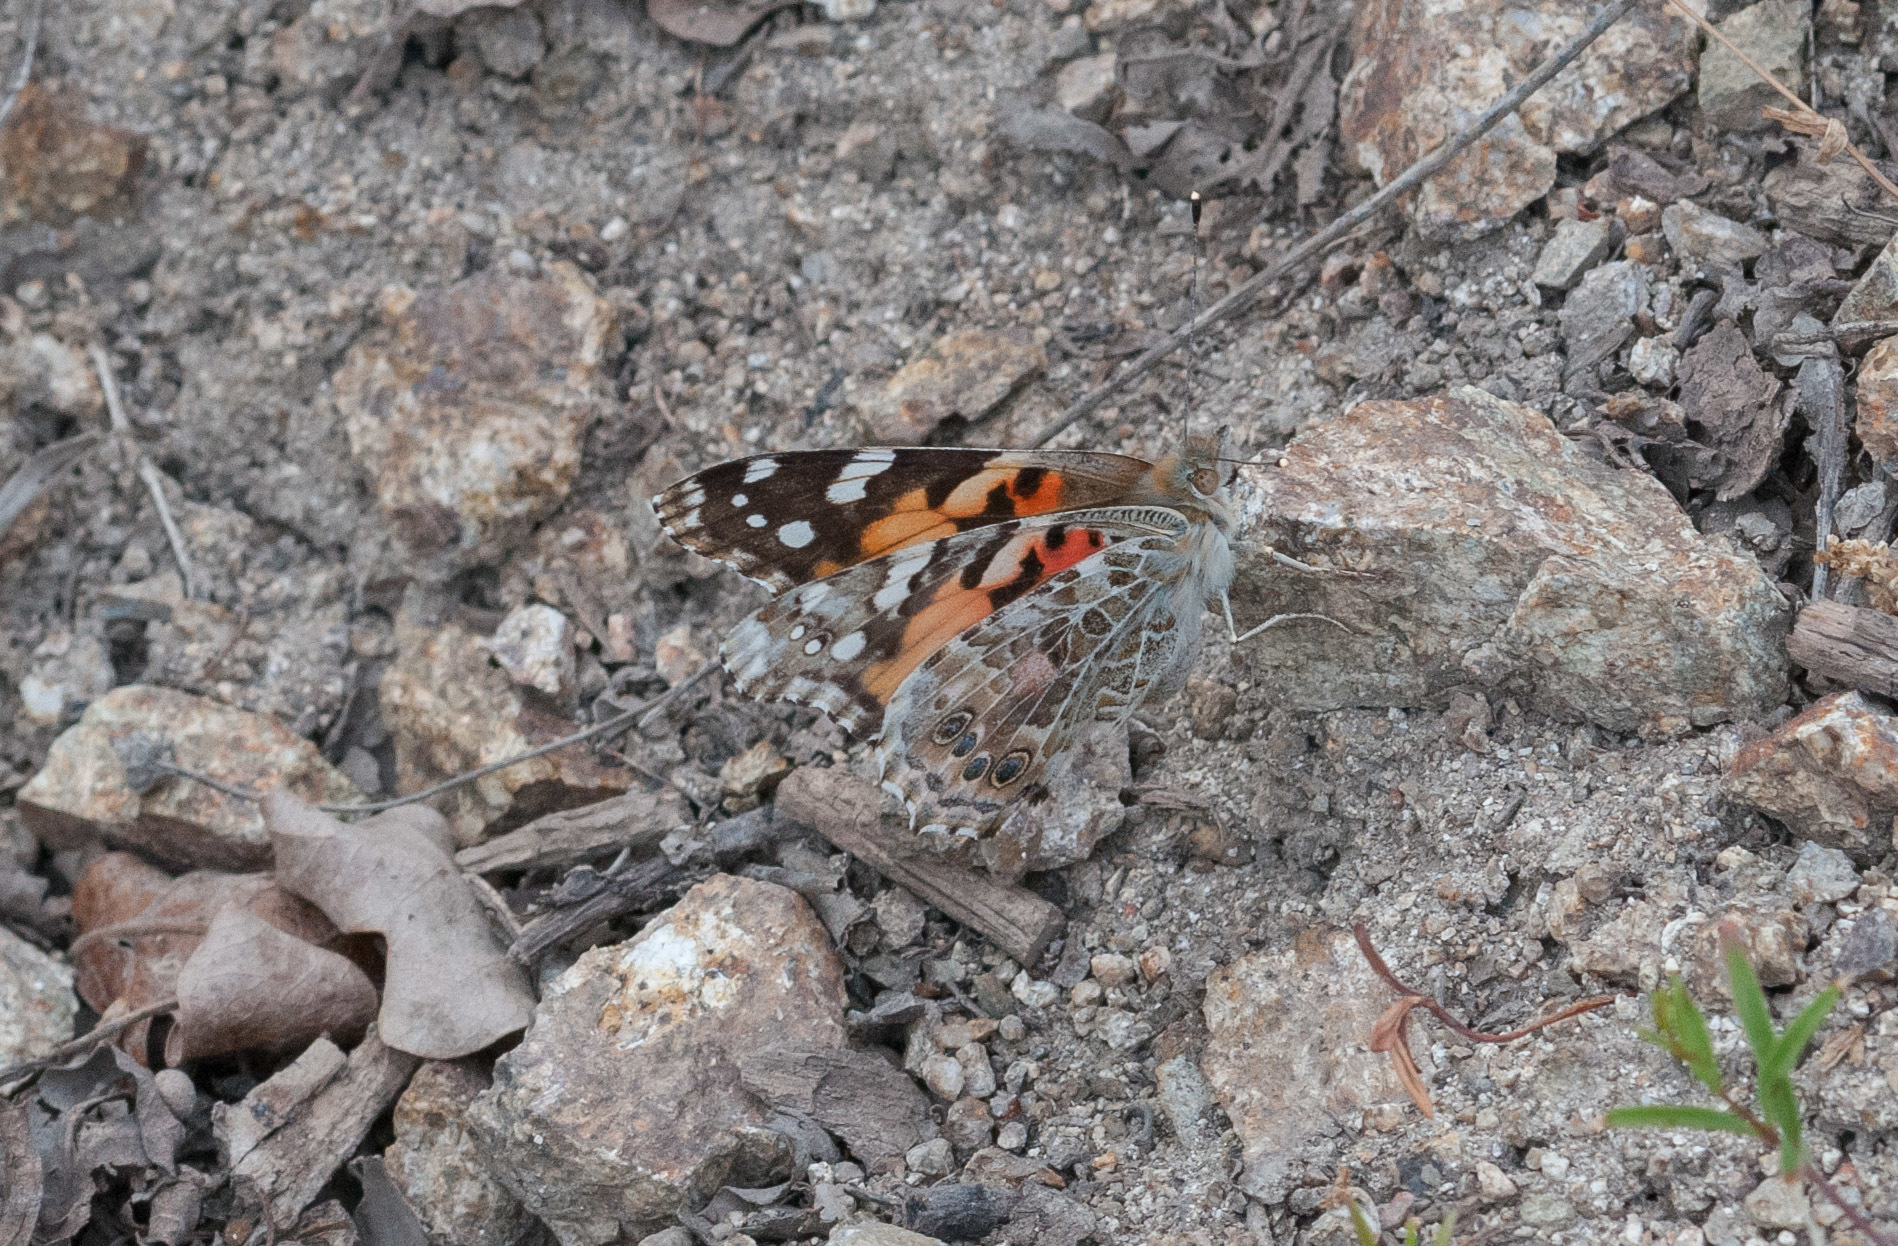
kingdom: Animalia
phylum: Arthropoda
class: Insecta
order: Lepidoptera
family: Nymphalidae
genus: Vanessa
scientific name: Vanessa cardui
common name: Painted lady
